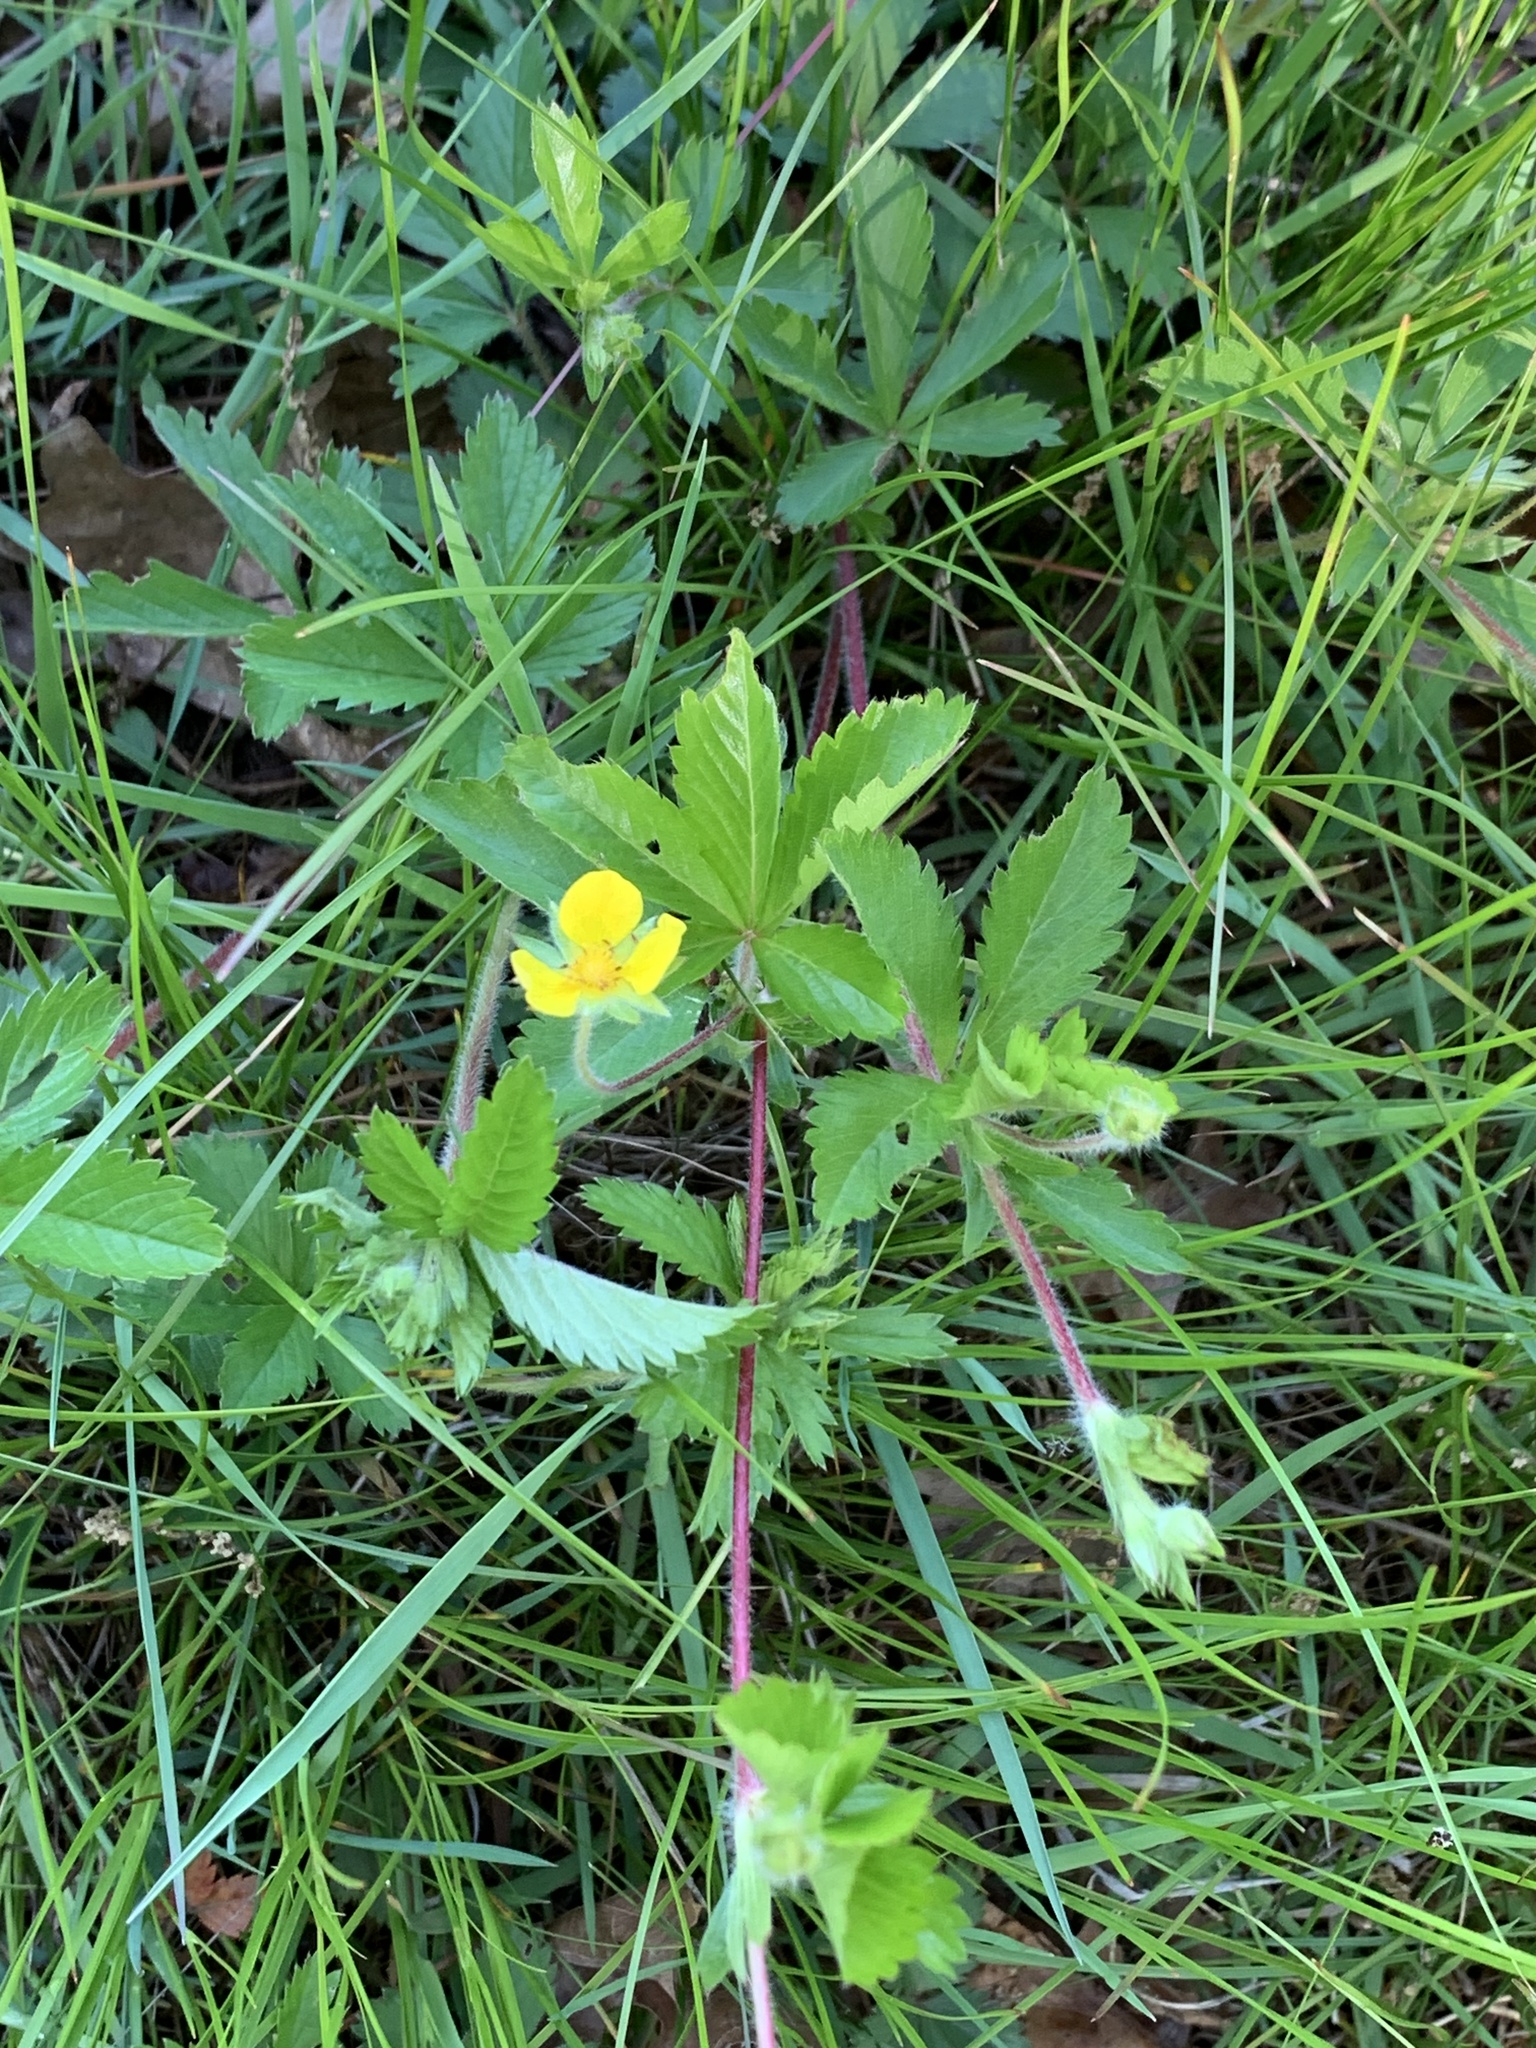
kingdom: Plantae
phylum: Tracheophyta
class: Magnoliopsida
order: Rosales
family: Rosaceae
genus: Potentilla
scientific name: Potentilla simplex
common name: Old field cinquefoil
